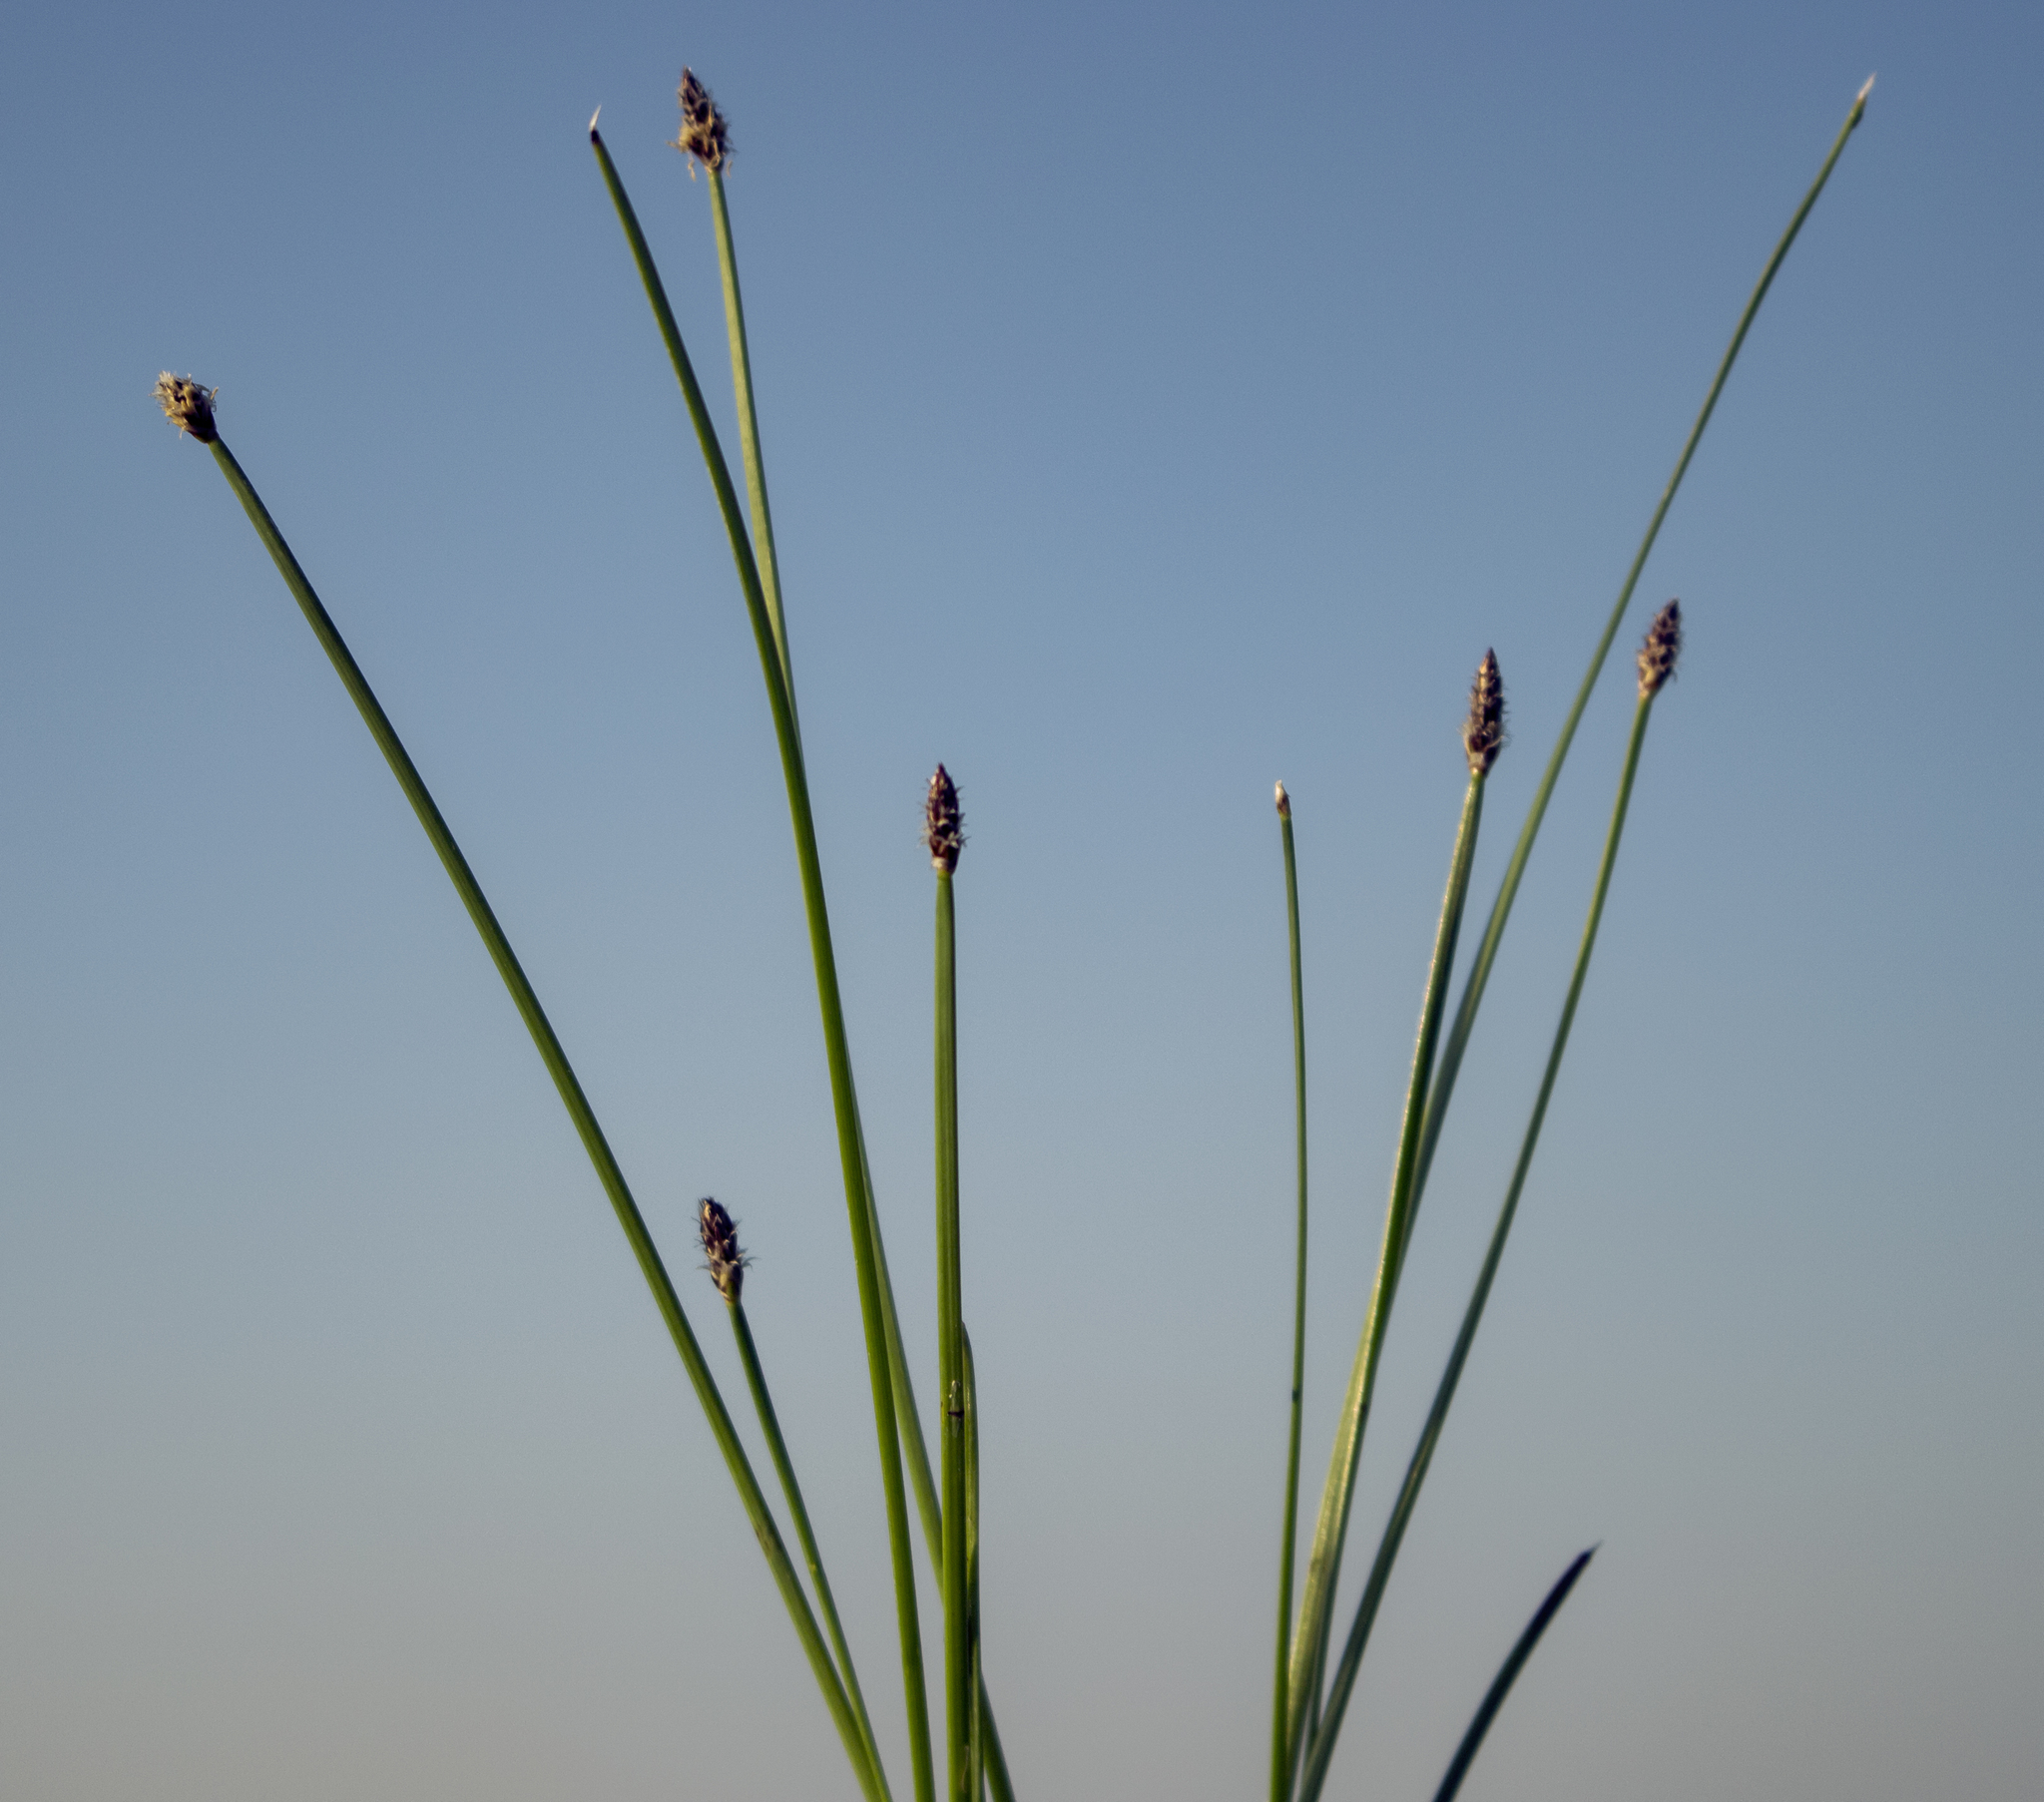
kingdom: Plantae
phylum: Tracheophyta
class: Liliopsida
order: Poales
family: Cyperaceae
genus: Eleocharis
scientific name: Eleocharis compressa
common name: Flat-stem spike-rush
